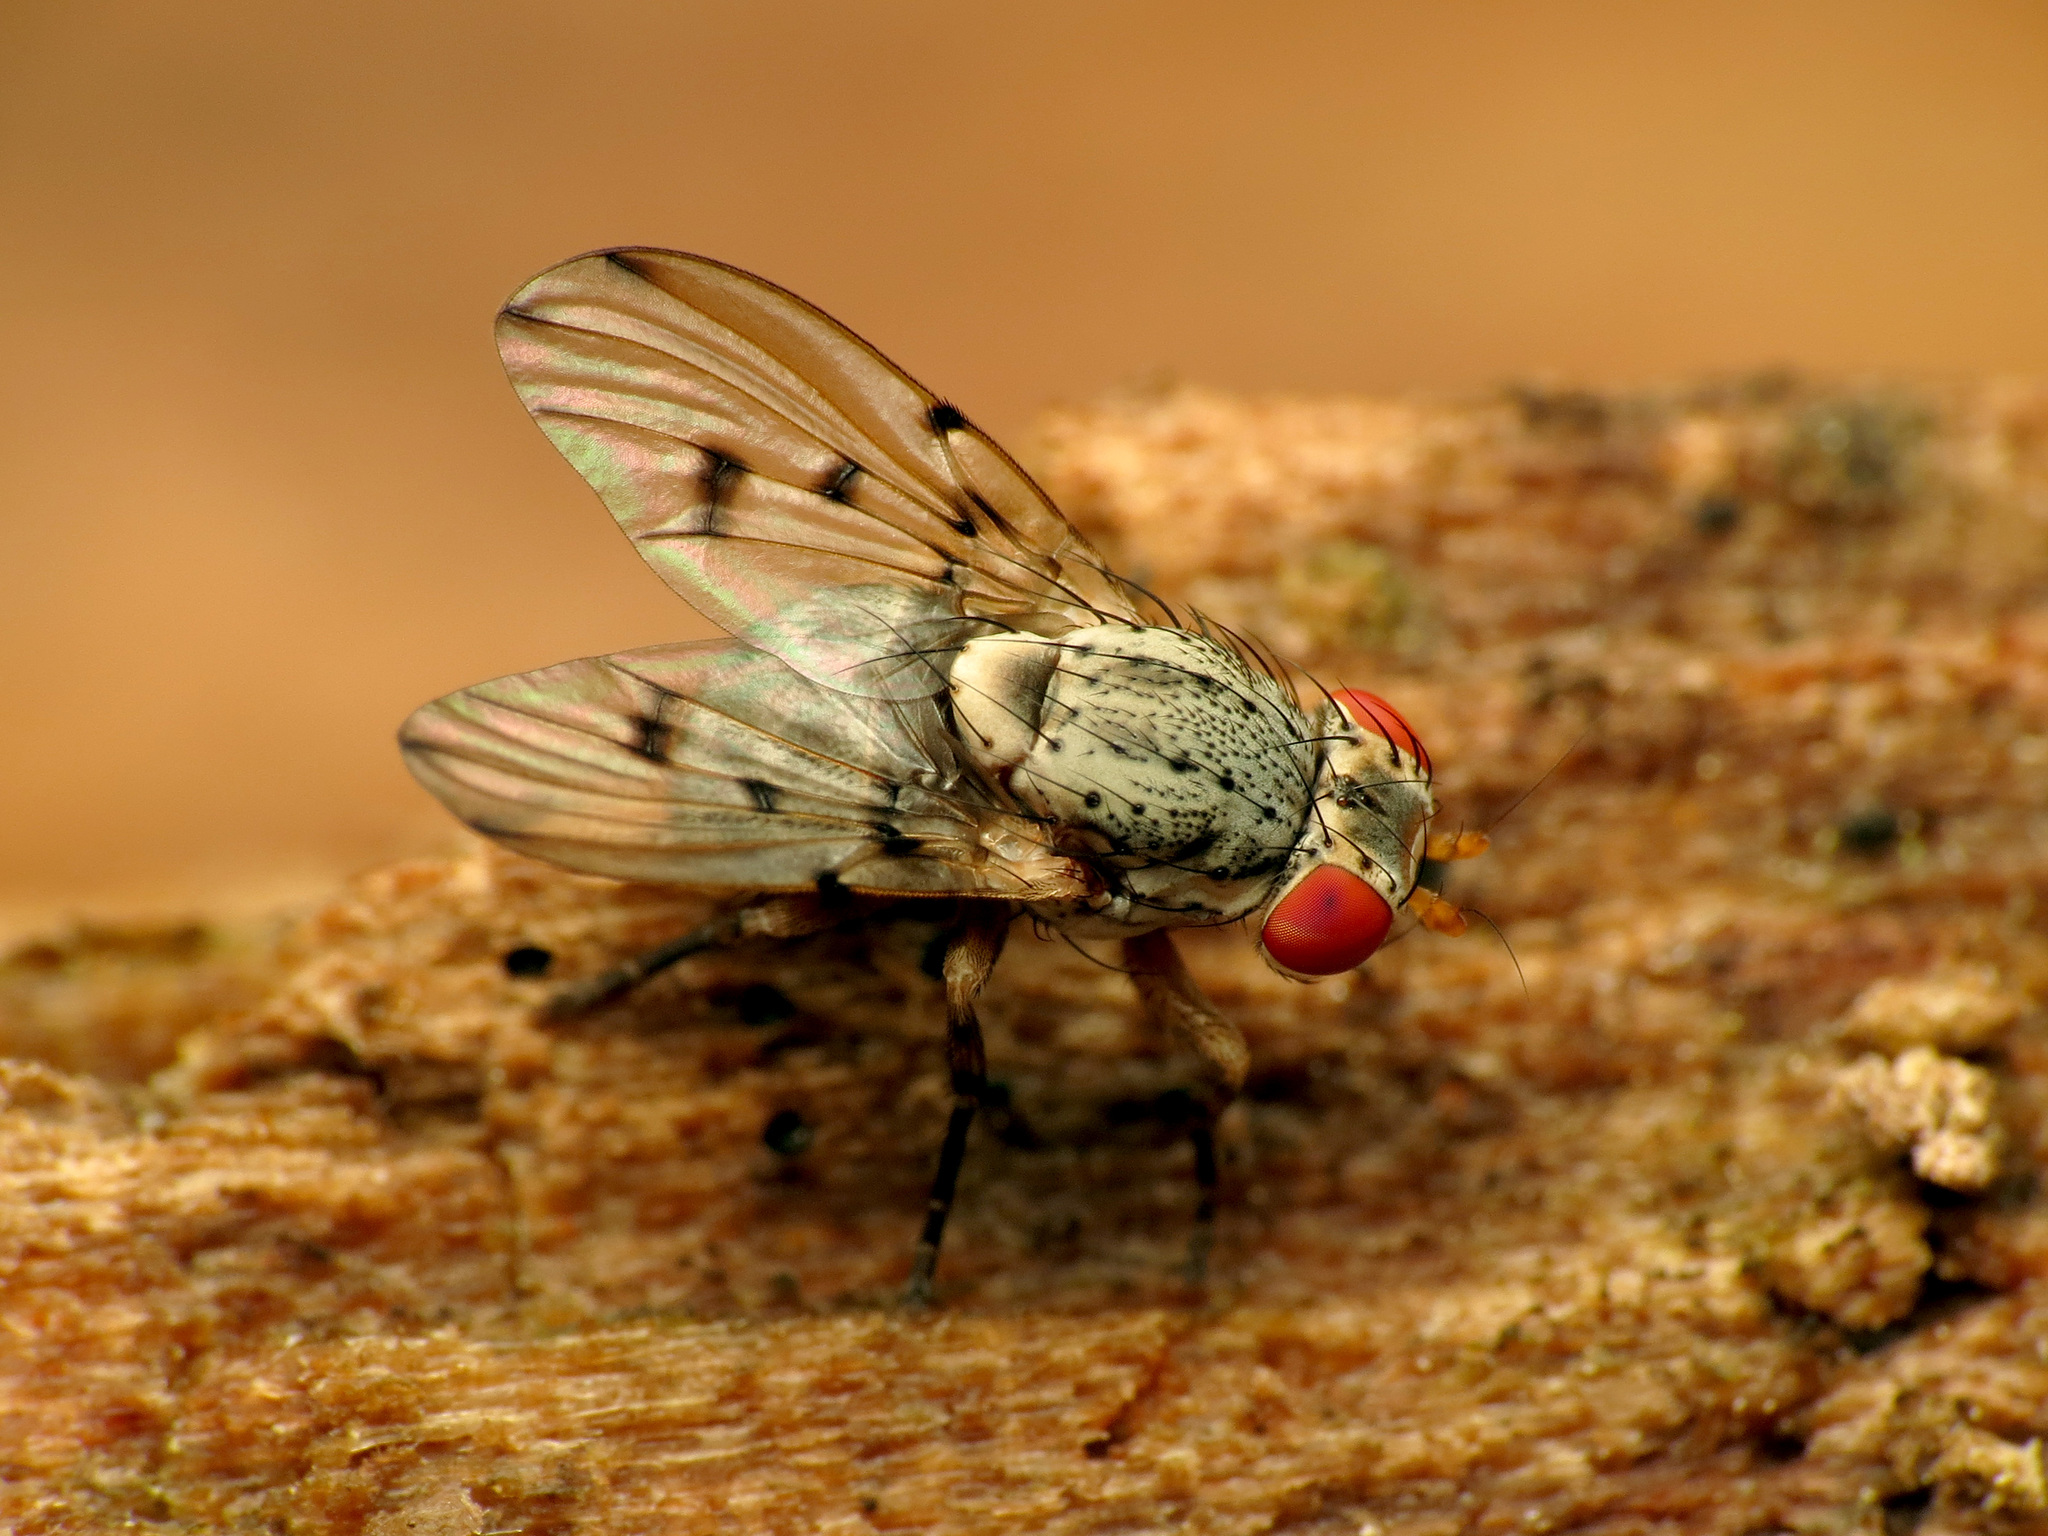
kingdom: Animalia
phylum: Arthropoda
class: Insecta
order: Diptera
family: Odiniidae
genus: Odinia
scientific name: Odinia conspicua
